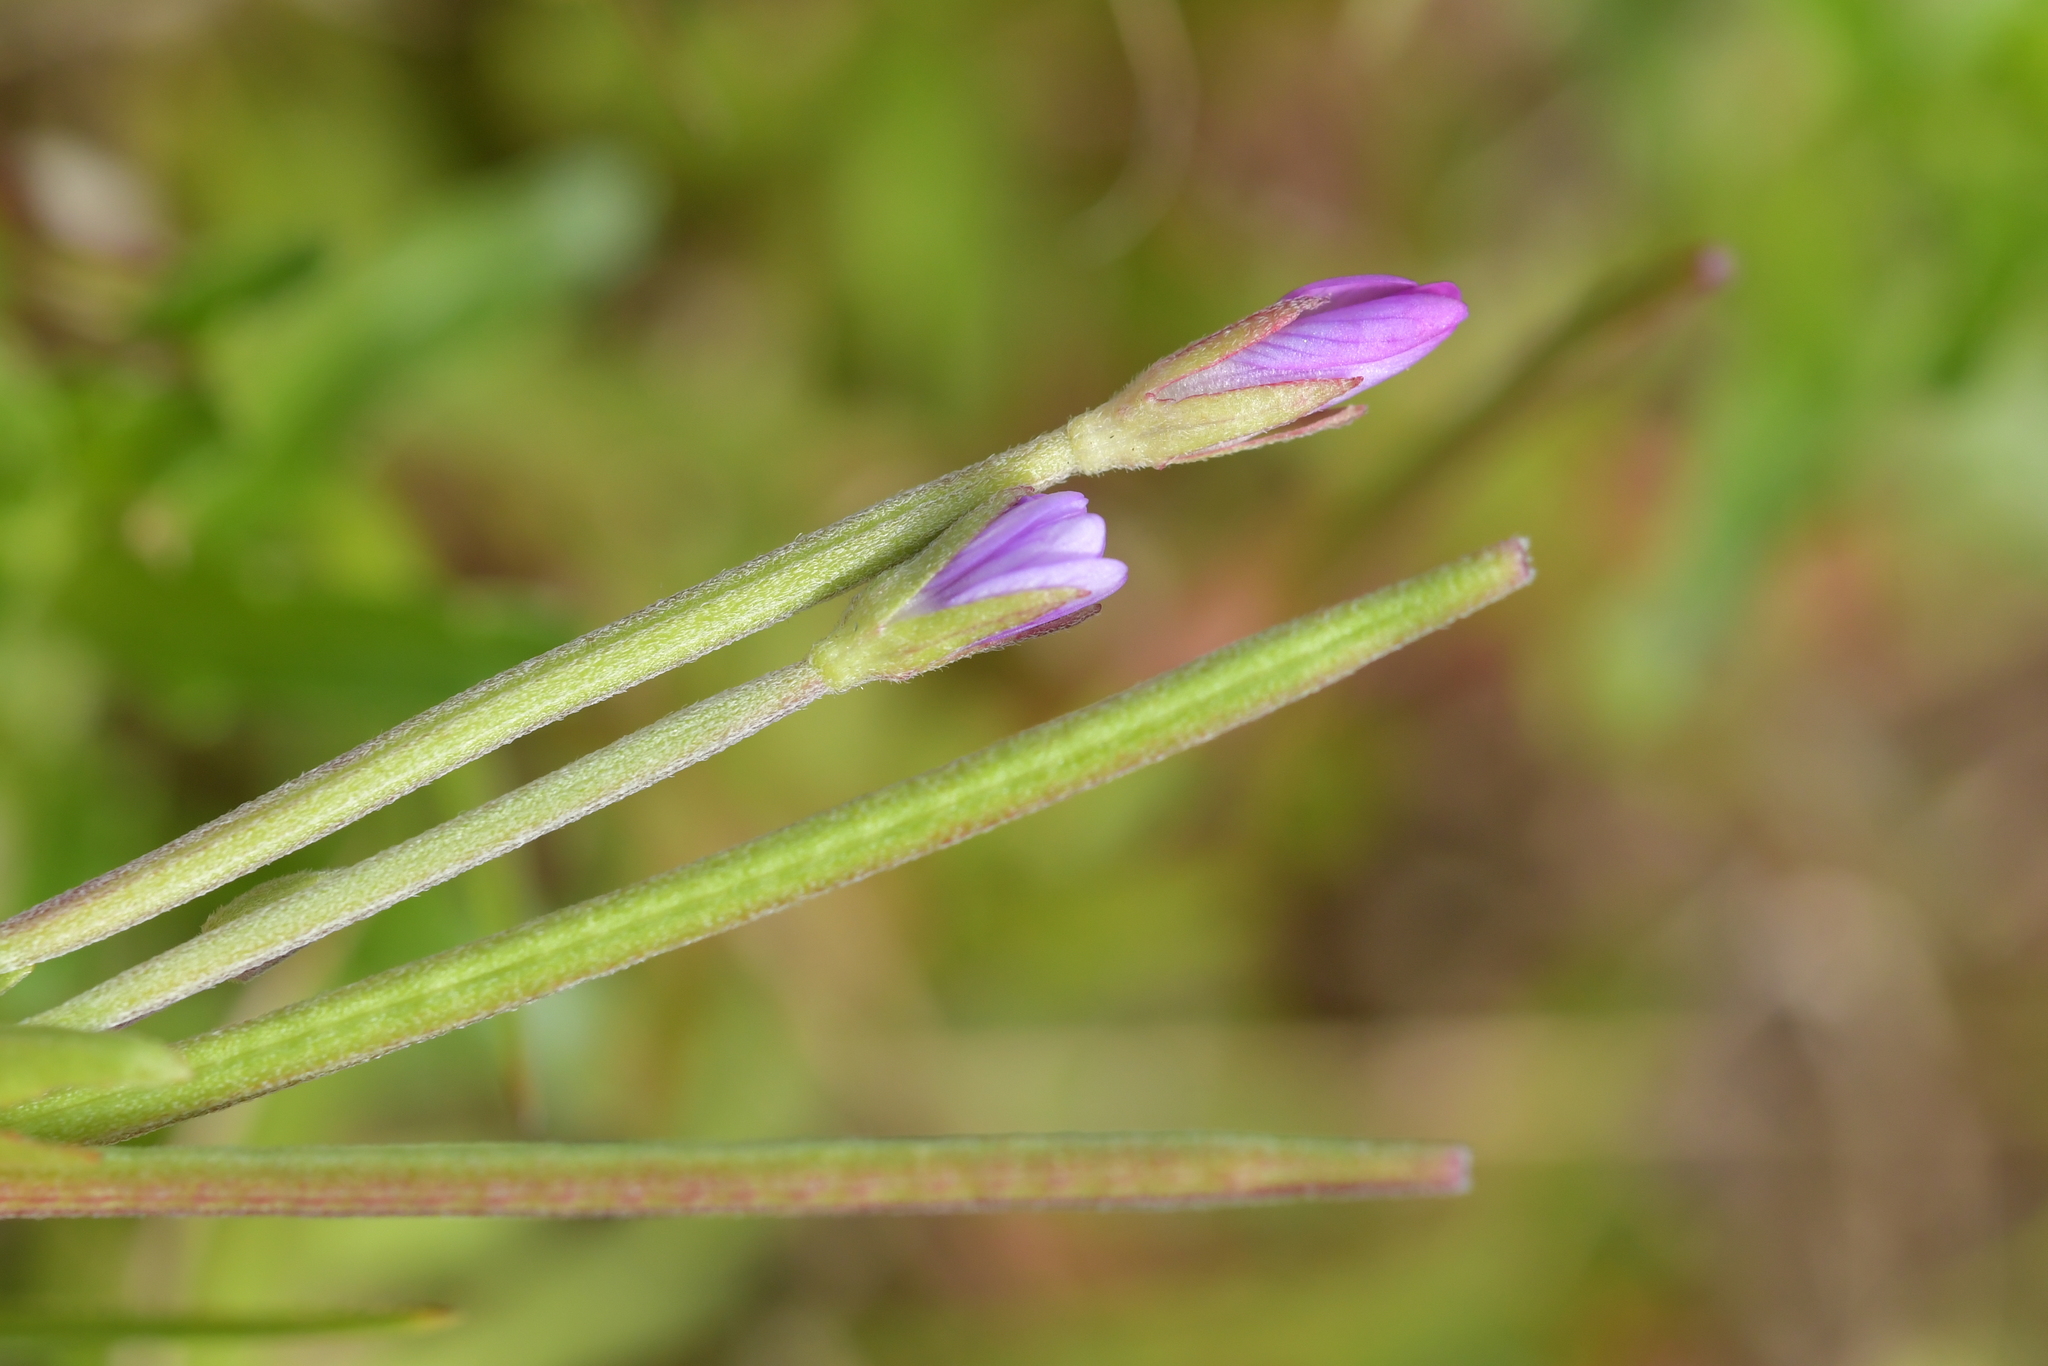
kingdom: Plantae
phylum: Tracheophyta
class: Magnoliopsida
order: Myrtales
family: Onagraceae
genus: Epilobium
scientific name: Epilobium obscurum
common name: Short-fruited willowherb
